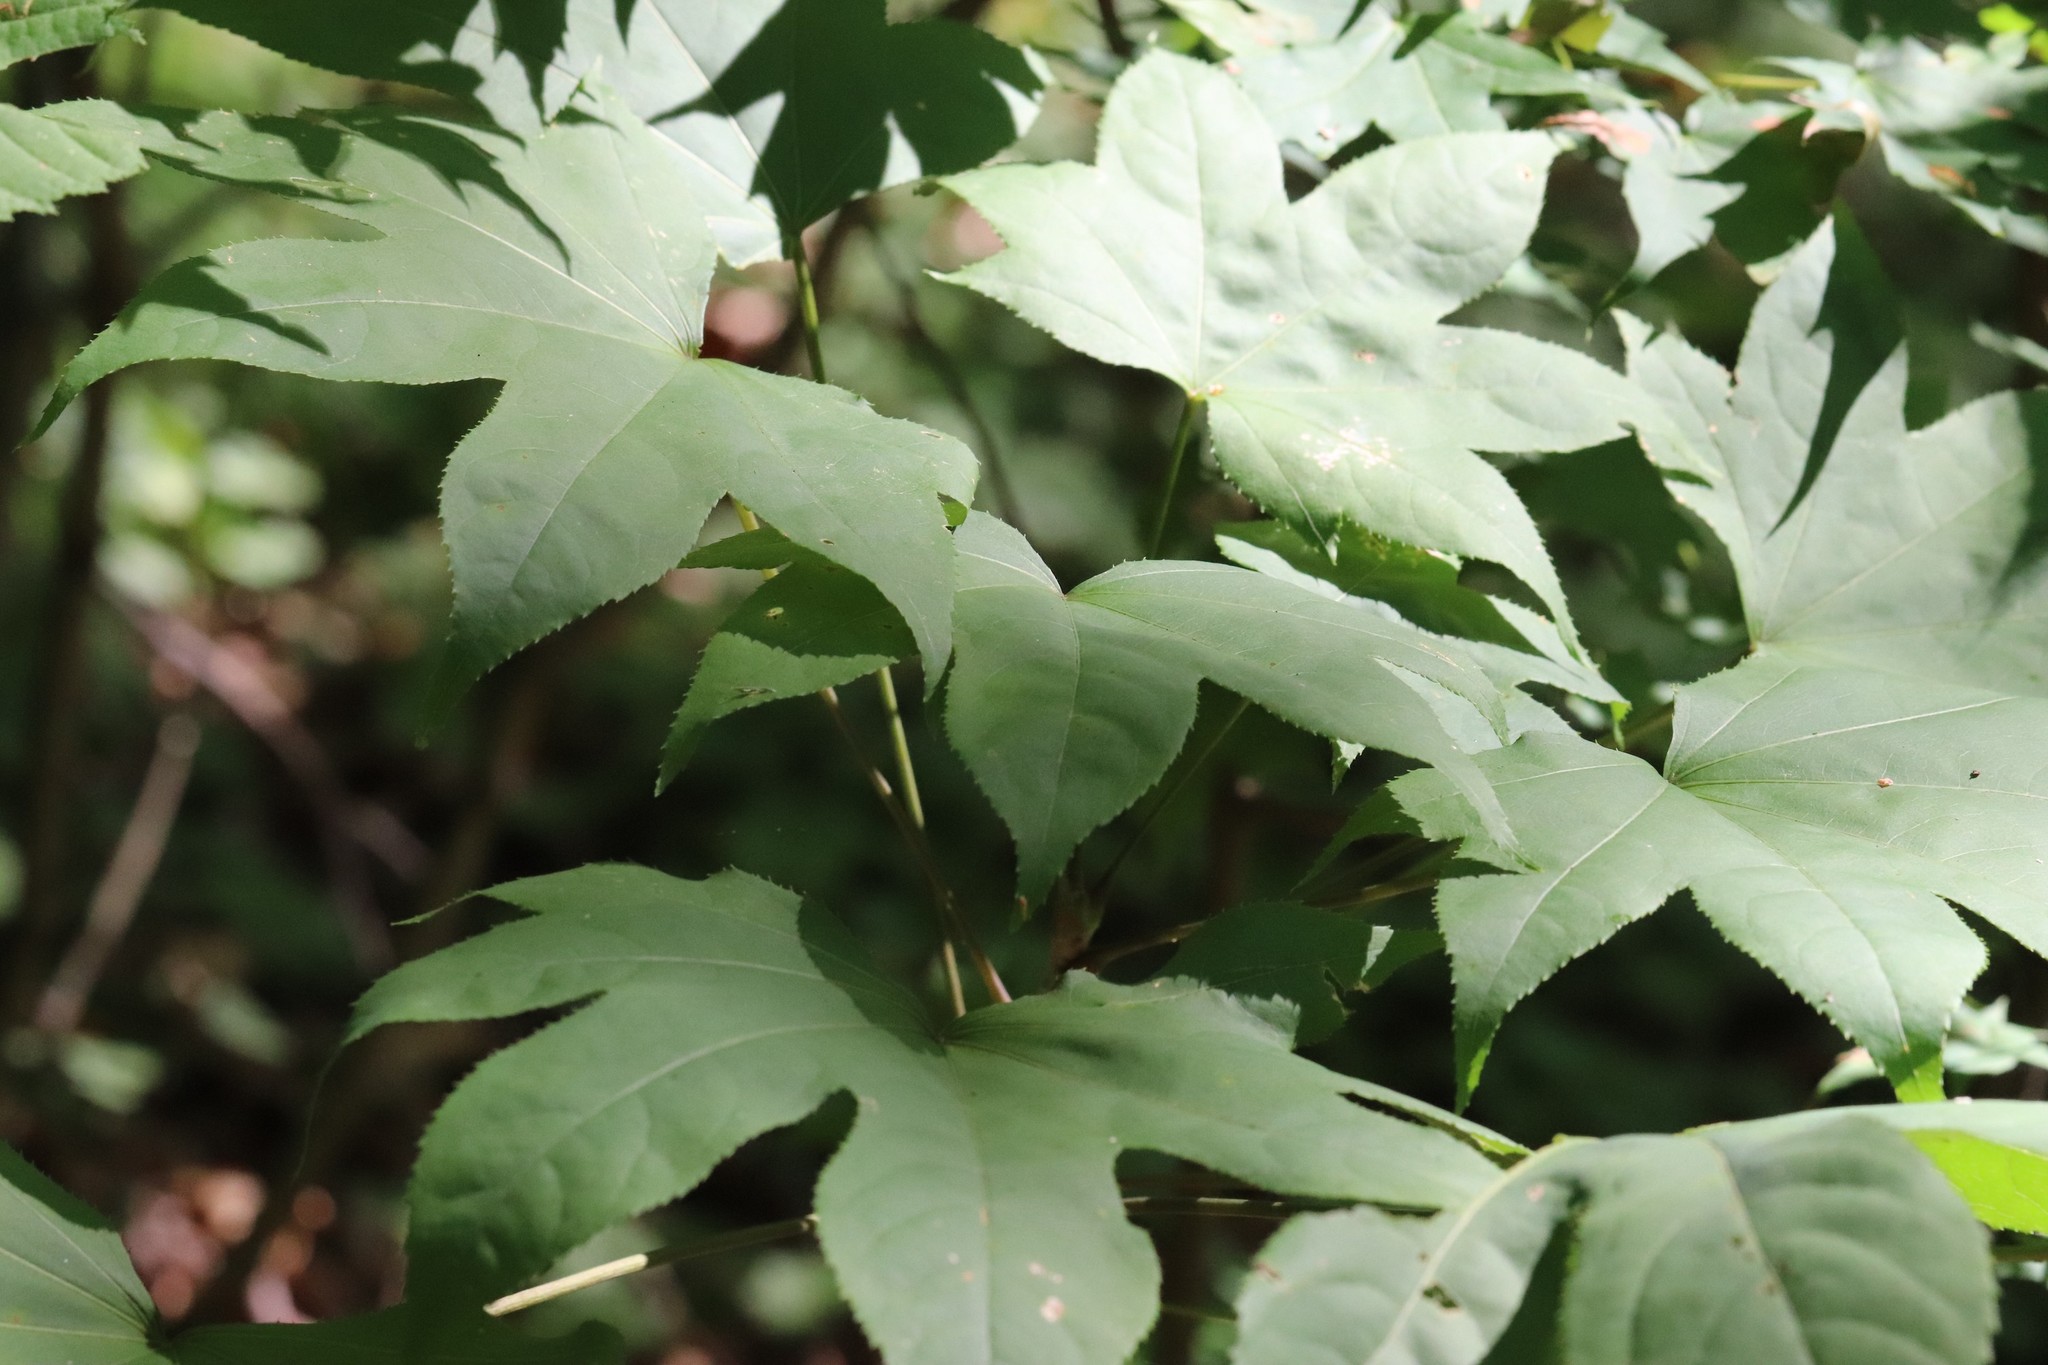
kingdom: Plantae
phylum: Tracheophyta
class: Magnoliopsida
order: Apiales
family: Araliaceae
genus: Kalopanax
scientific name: Kalopanax septemlobus
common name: Castor aralia
